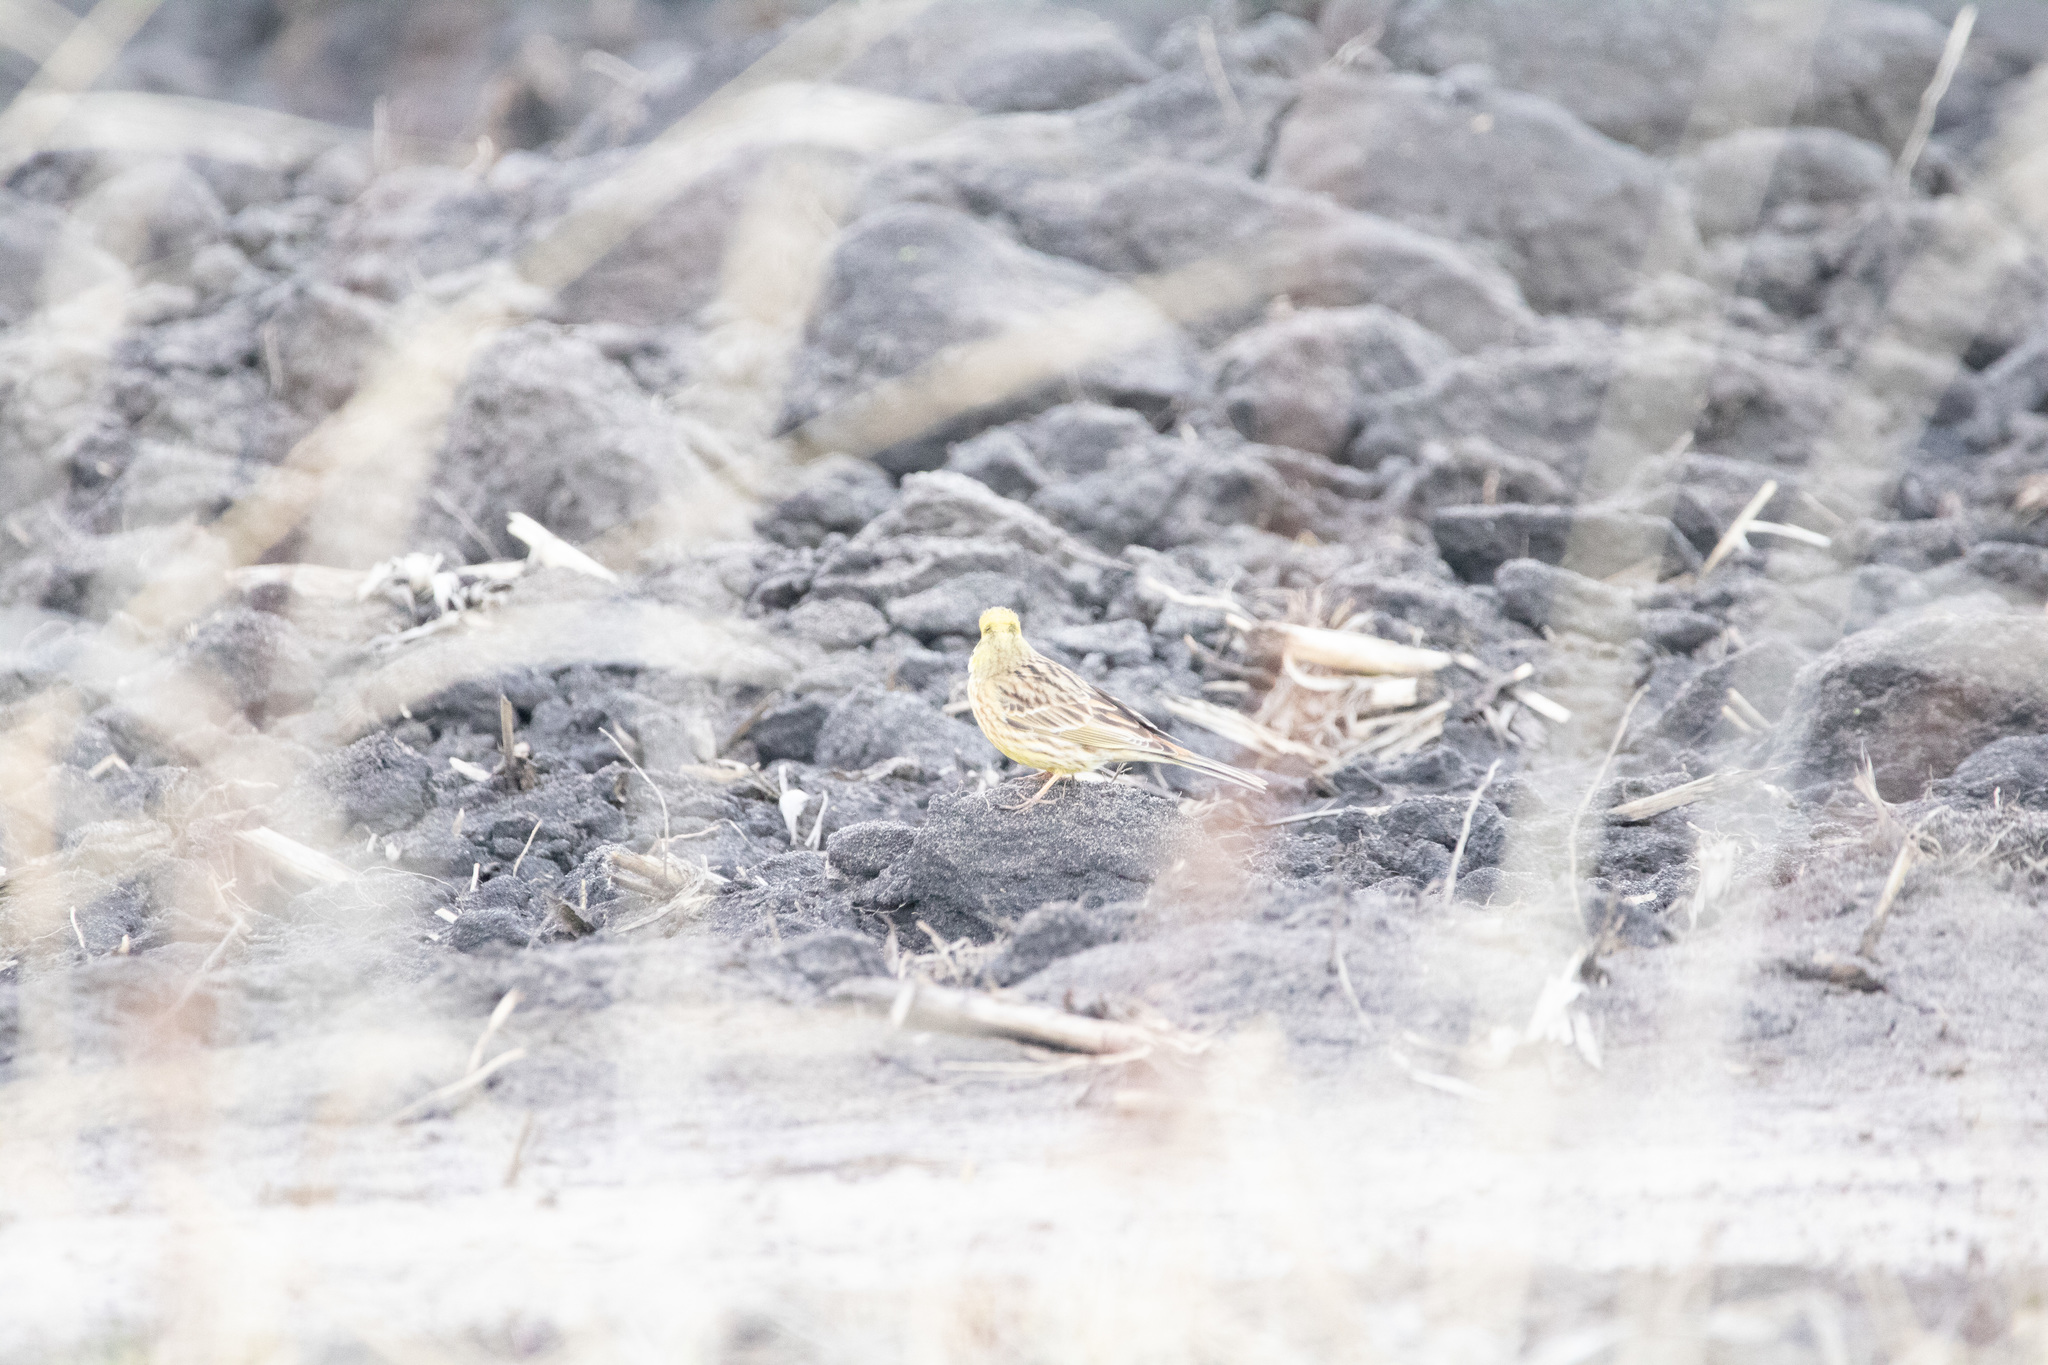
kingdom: Animalia
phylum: Chordata
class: Aves
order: Passeriformes
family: Emberizidae
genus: Emberiza
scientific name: Emberiza citrinella
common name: Yellowhammer
